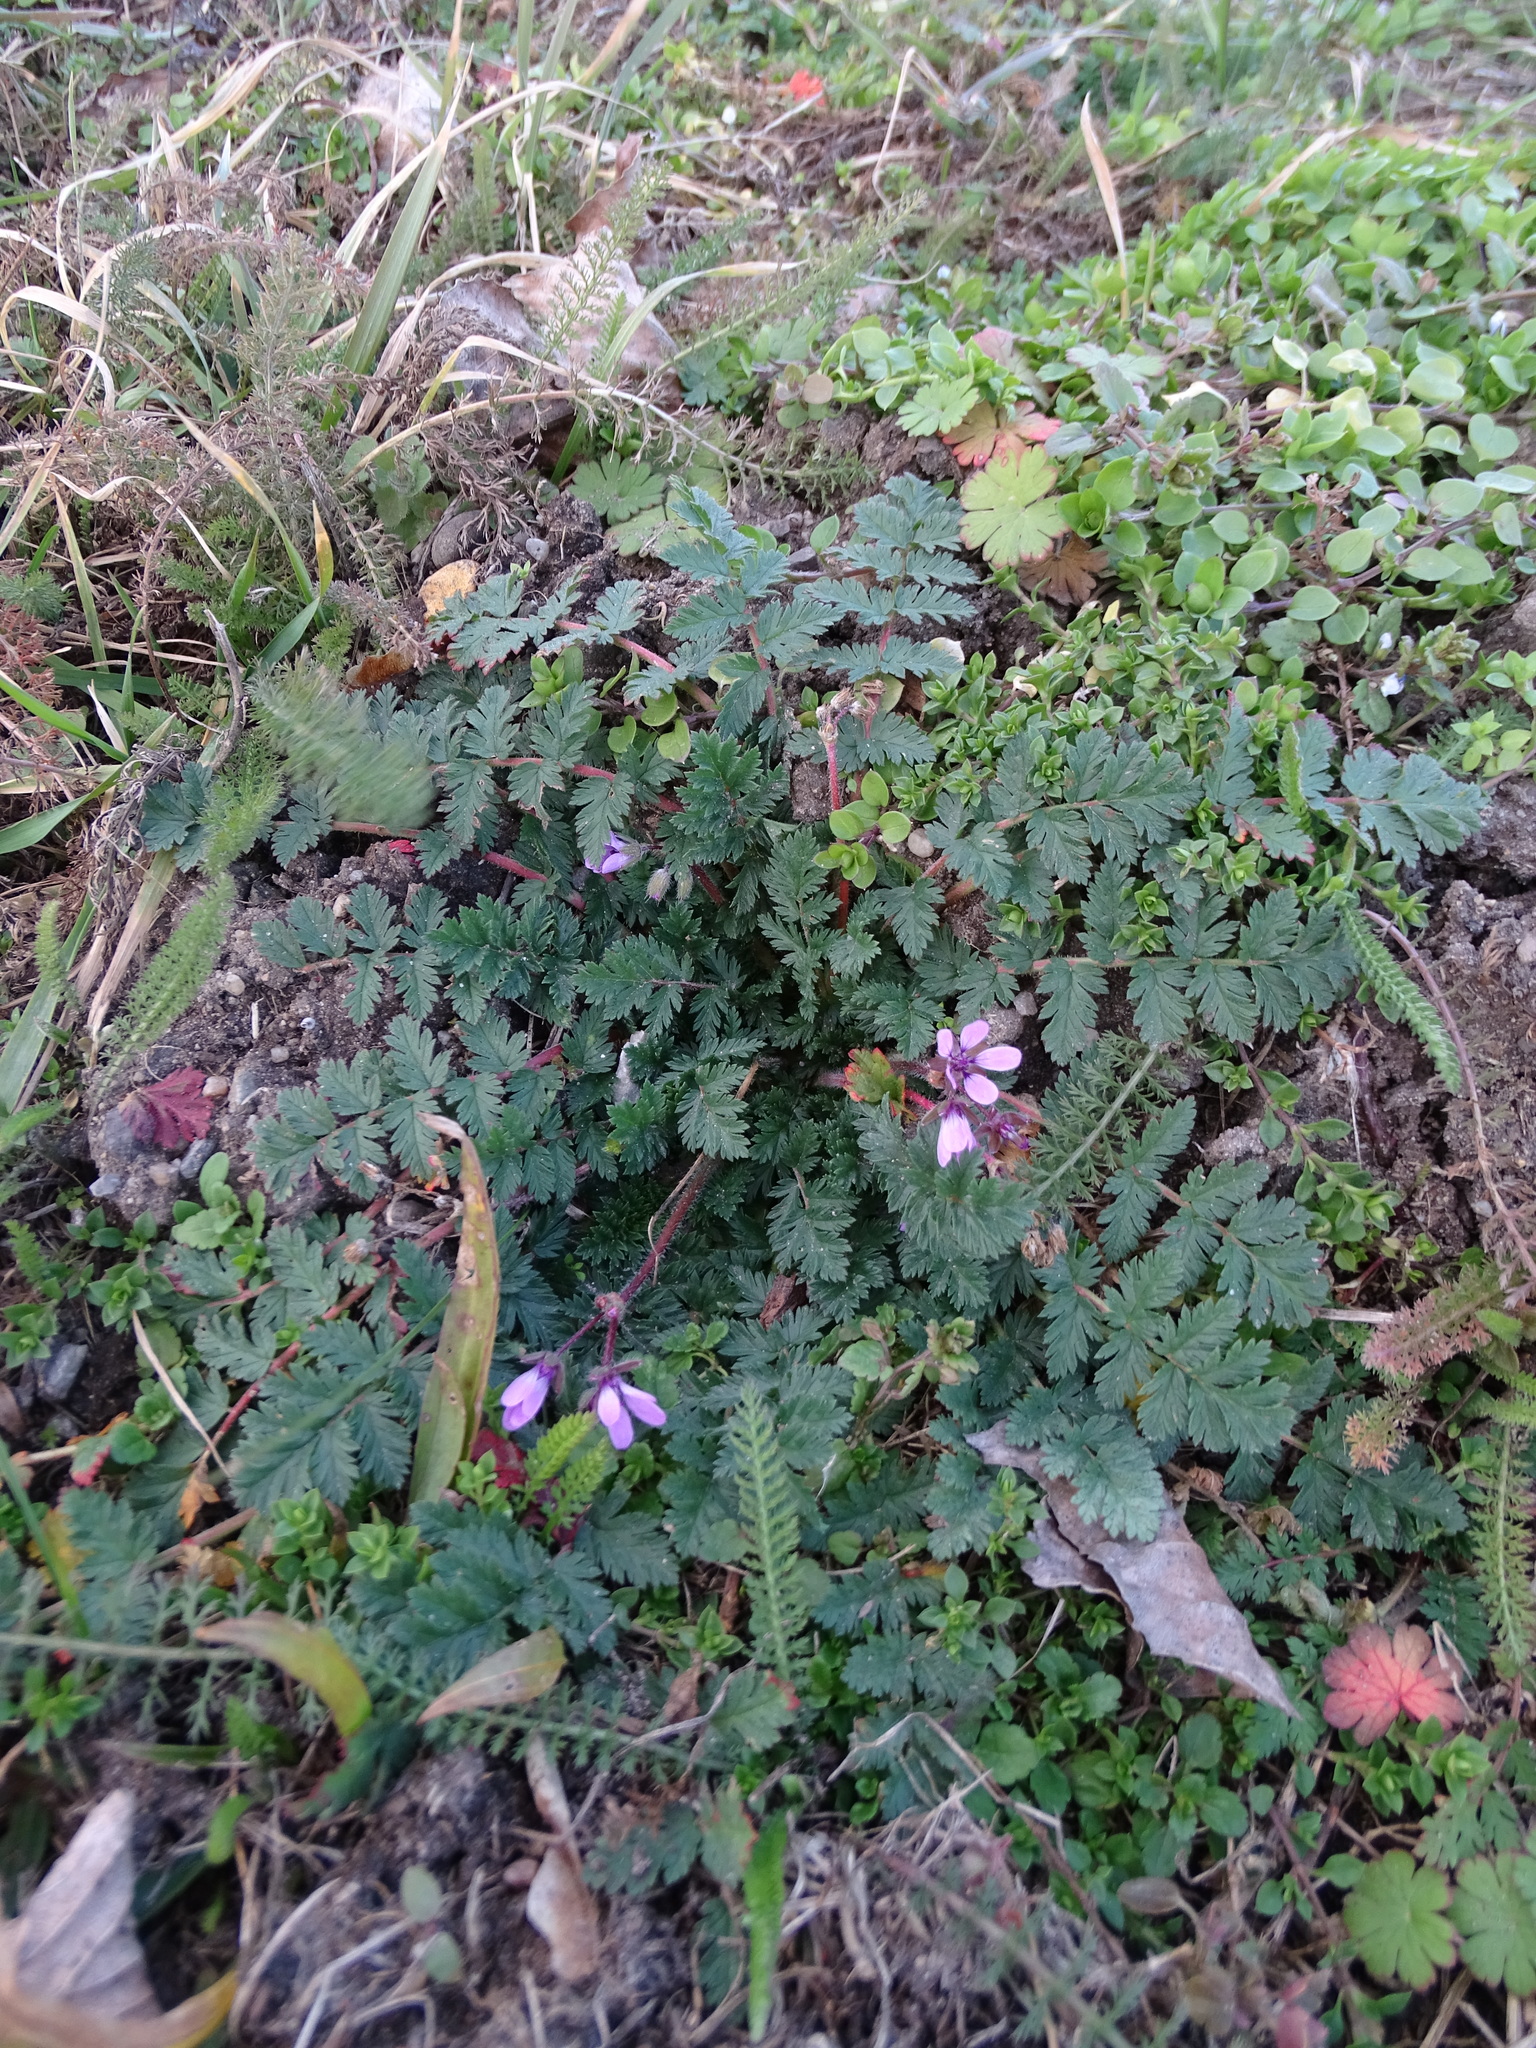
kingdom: Plantae
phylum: Tracheophyta
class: Magnoliopsida
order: Geraniales
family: Geraniaceae
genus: Erodium
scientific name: Erodium cicutarium
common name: Common stork's-bill
